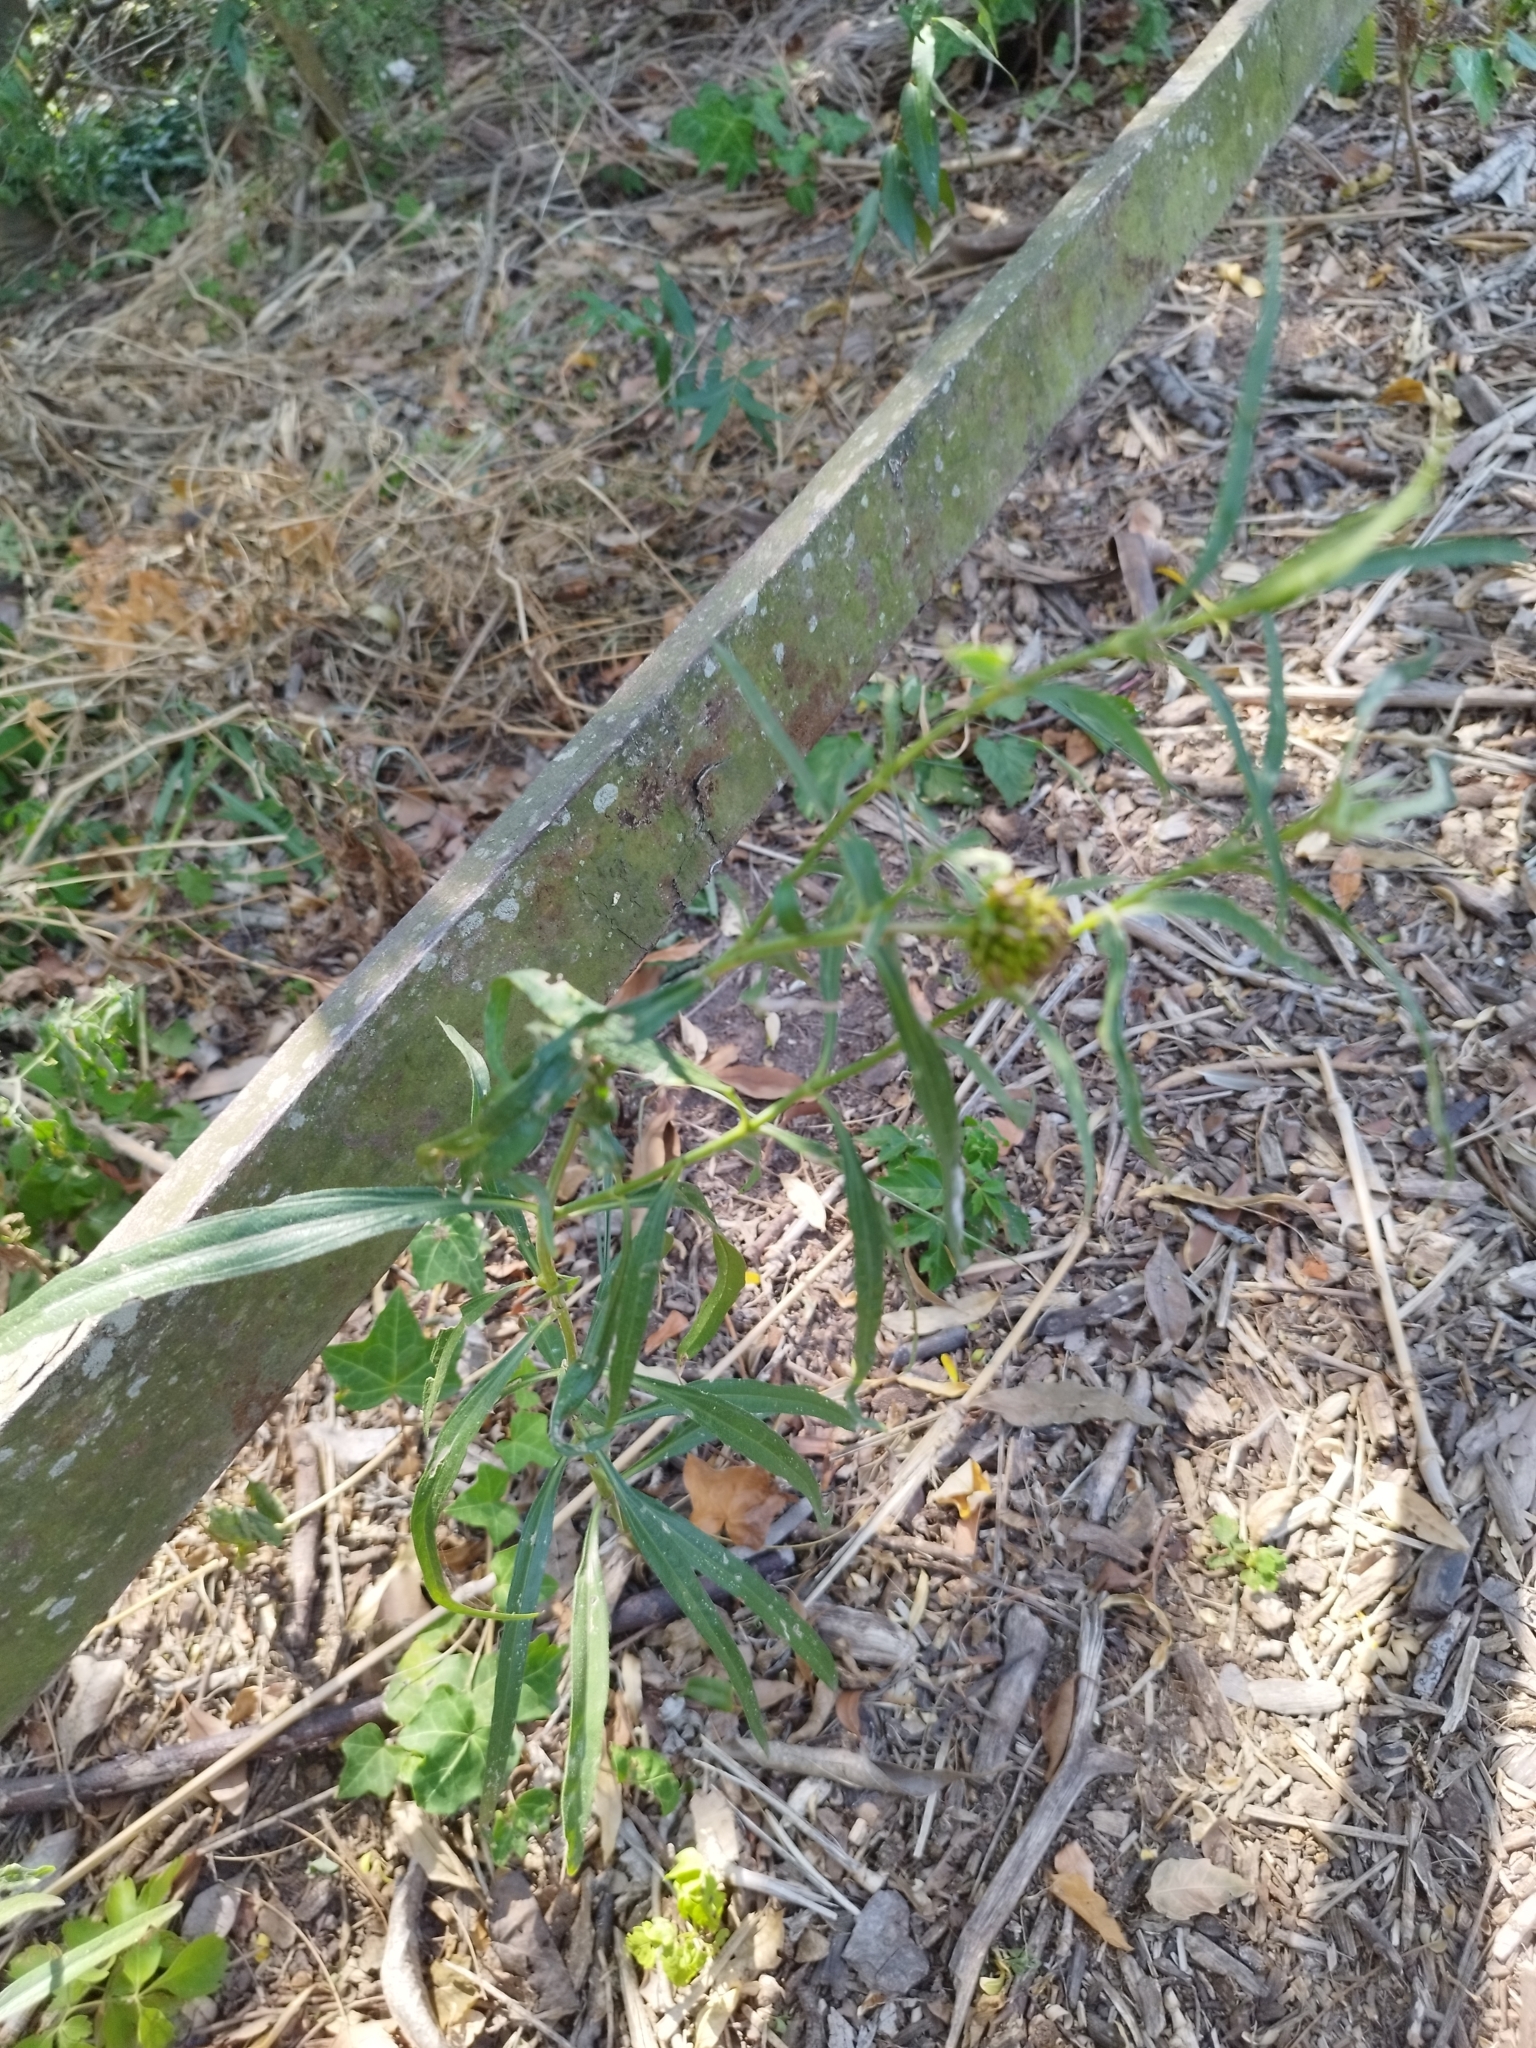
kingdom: Plantae
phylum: Tracheophyta
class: Magnoliopsida
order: Asterales
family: Asteraceae
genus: Pascalia
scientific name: Pascalia glauca
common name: Beach creeping oxeye
